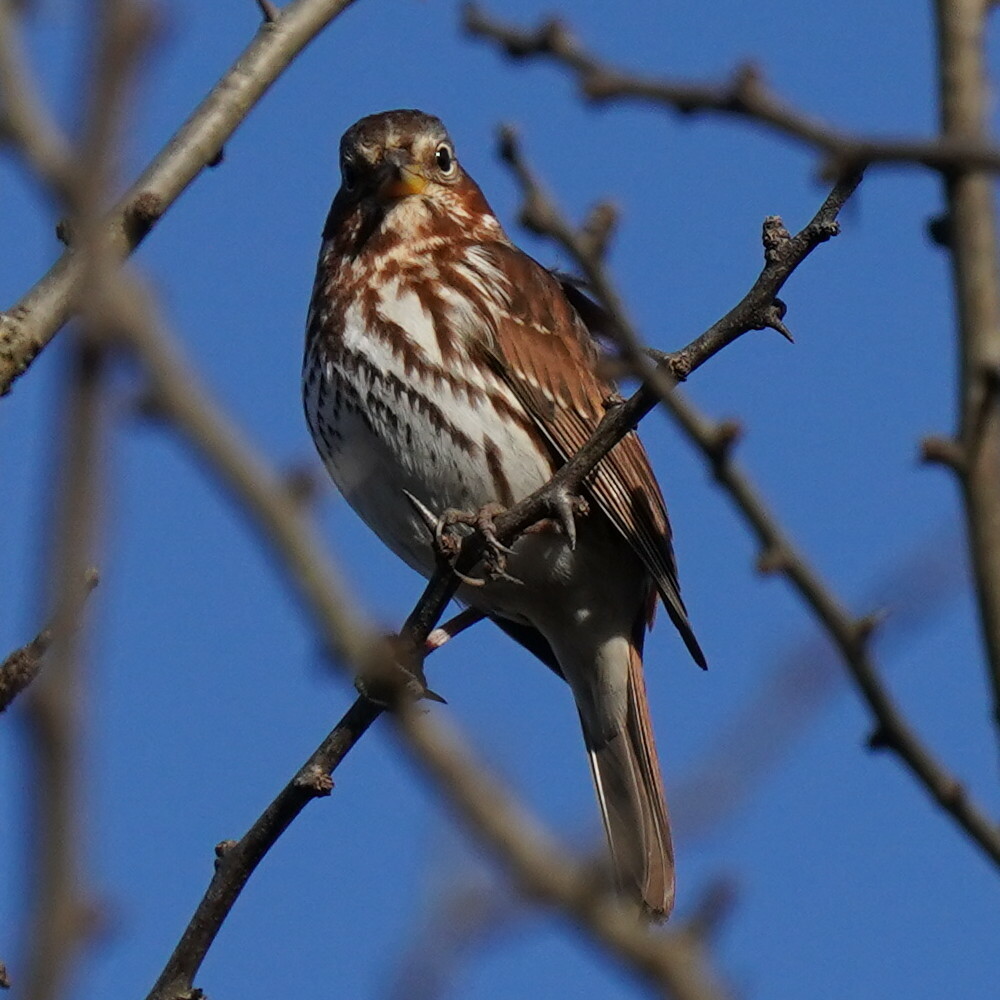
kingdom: Animalia
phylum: Chordata
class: Aves
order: Passeriformes
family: Passerellidae
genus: Passerella
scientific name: Passerella iliaca
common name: Fox sparrow
